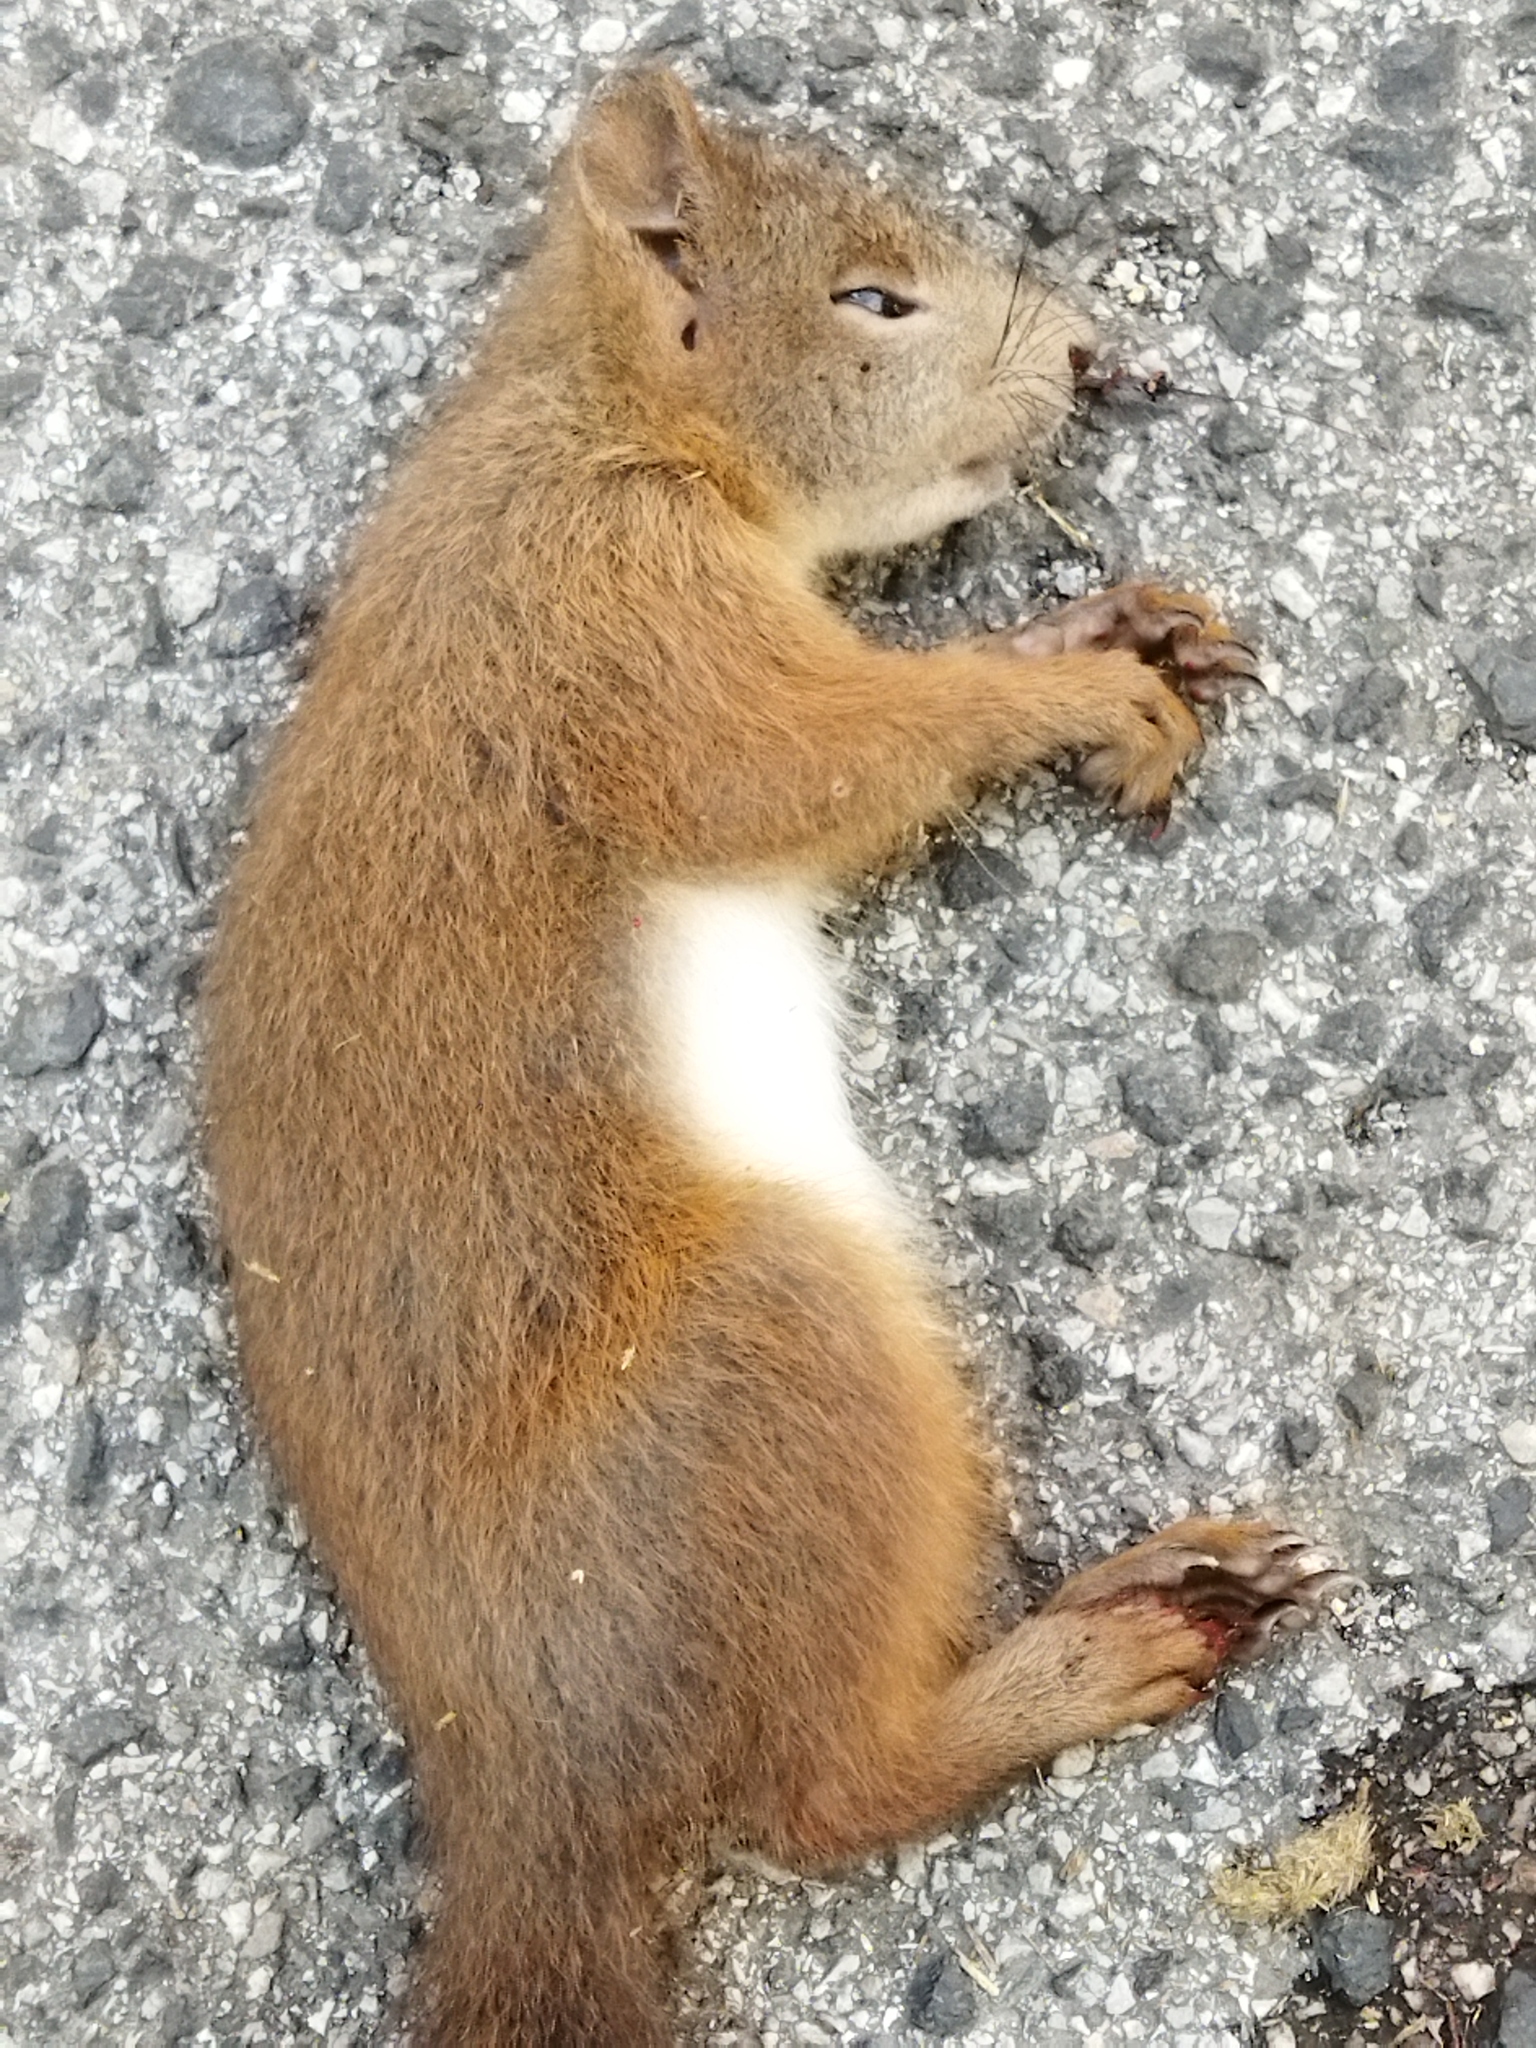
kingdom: Animalia
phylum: Chordata
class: Mammalia
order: Rodentia
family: Sciuridae
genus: Sciurus
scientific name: Sciurus vulgaris
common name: Eurasian red squirrel
